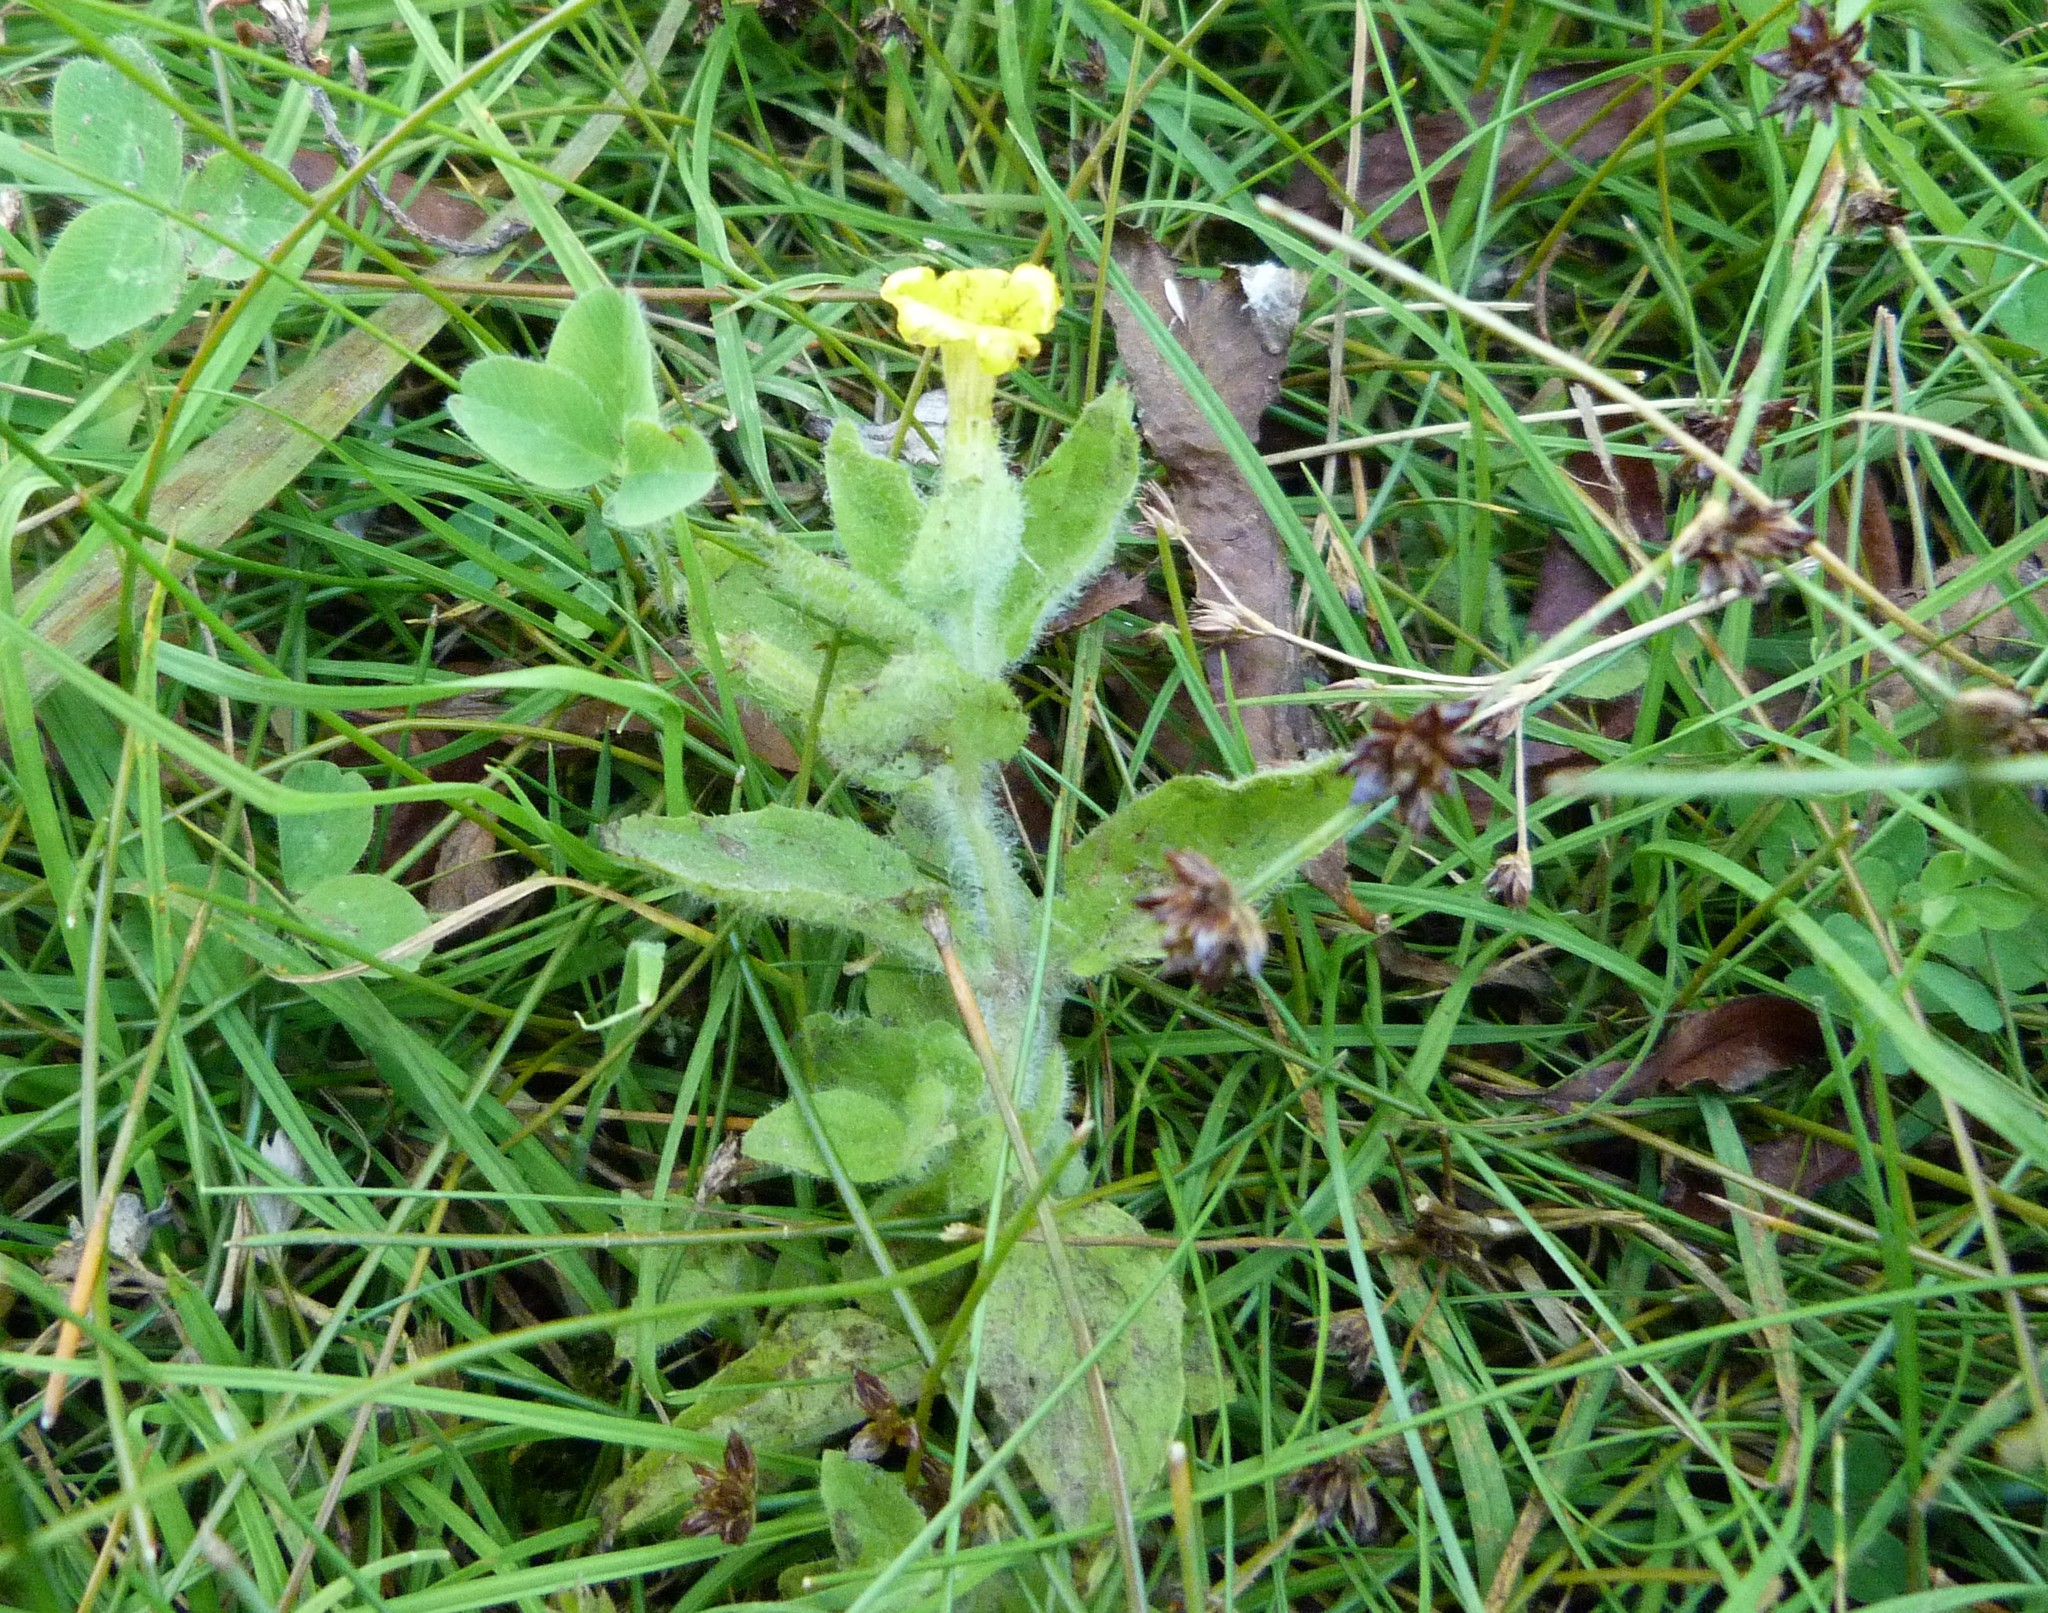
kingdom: Plantae
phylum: Tracheophyta
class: Magnoliopsida
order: Lamiales
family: Phrymaceae
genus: Erythranthe
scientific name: Erythranthe moschata
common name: Muskflower
